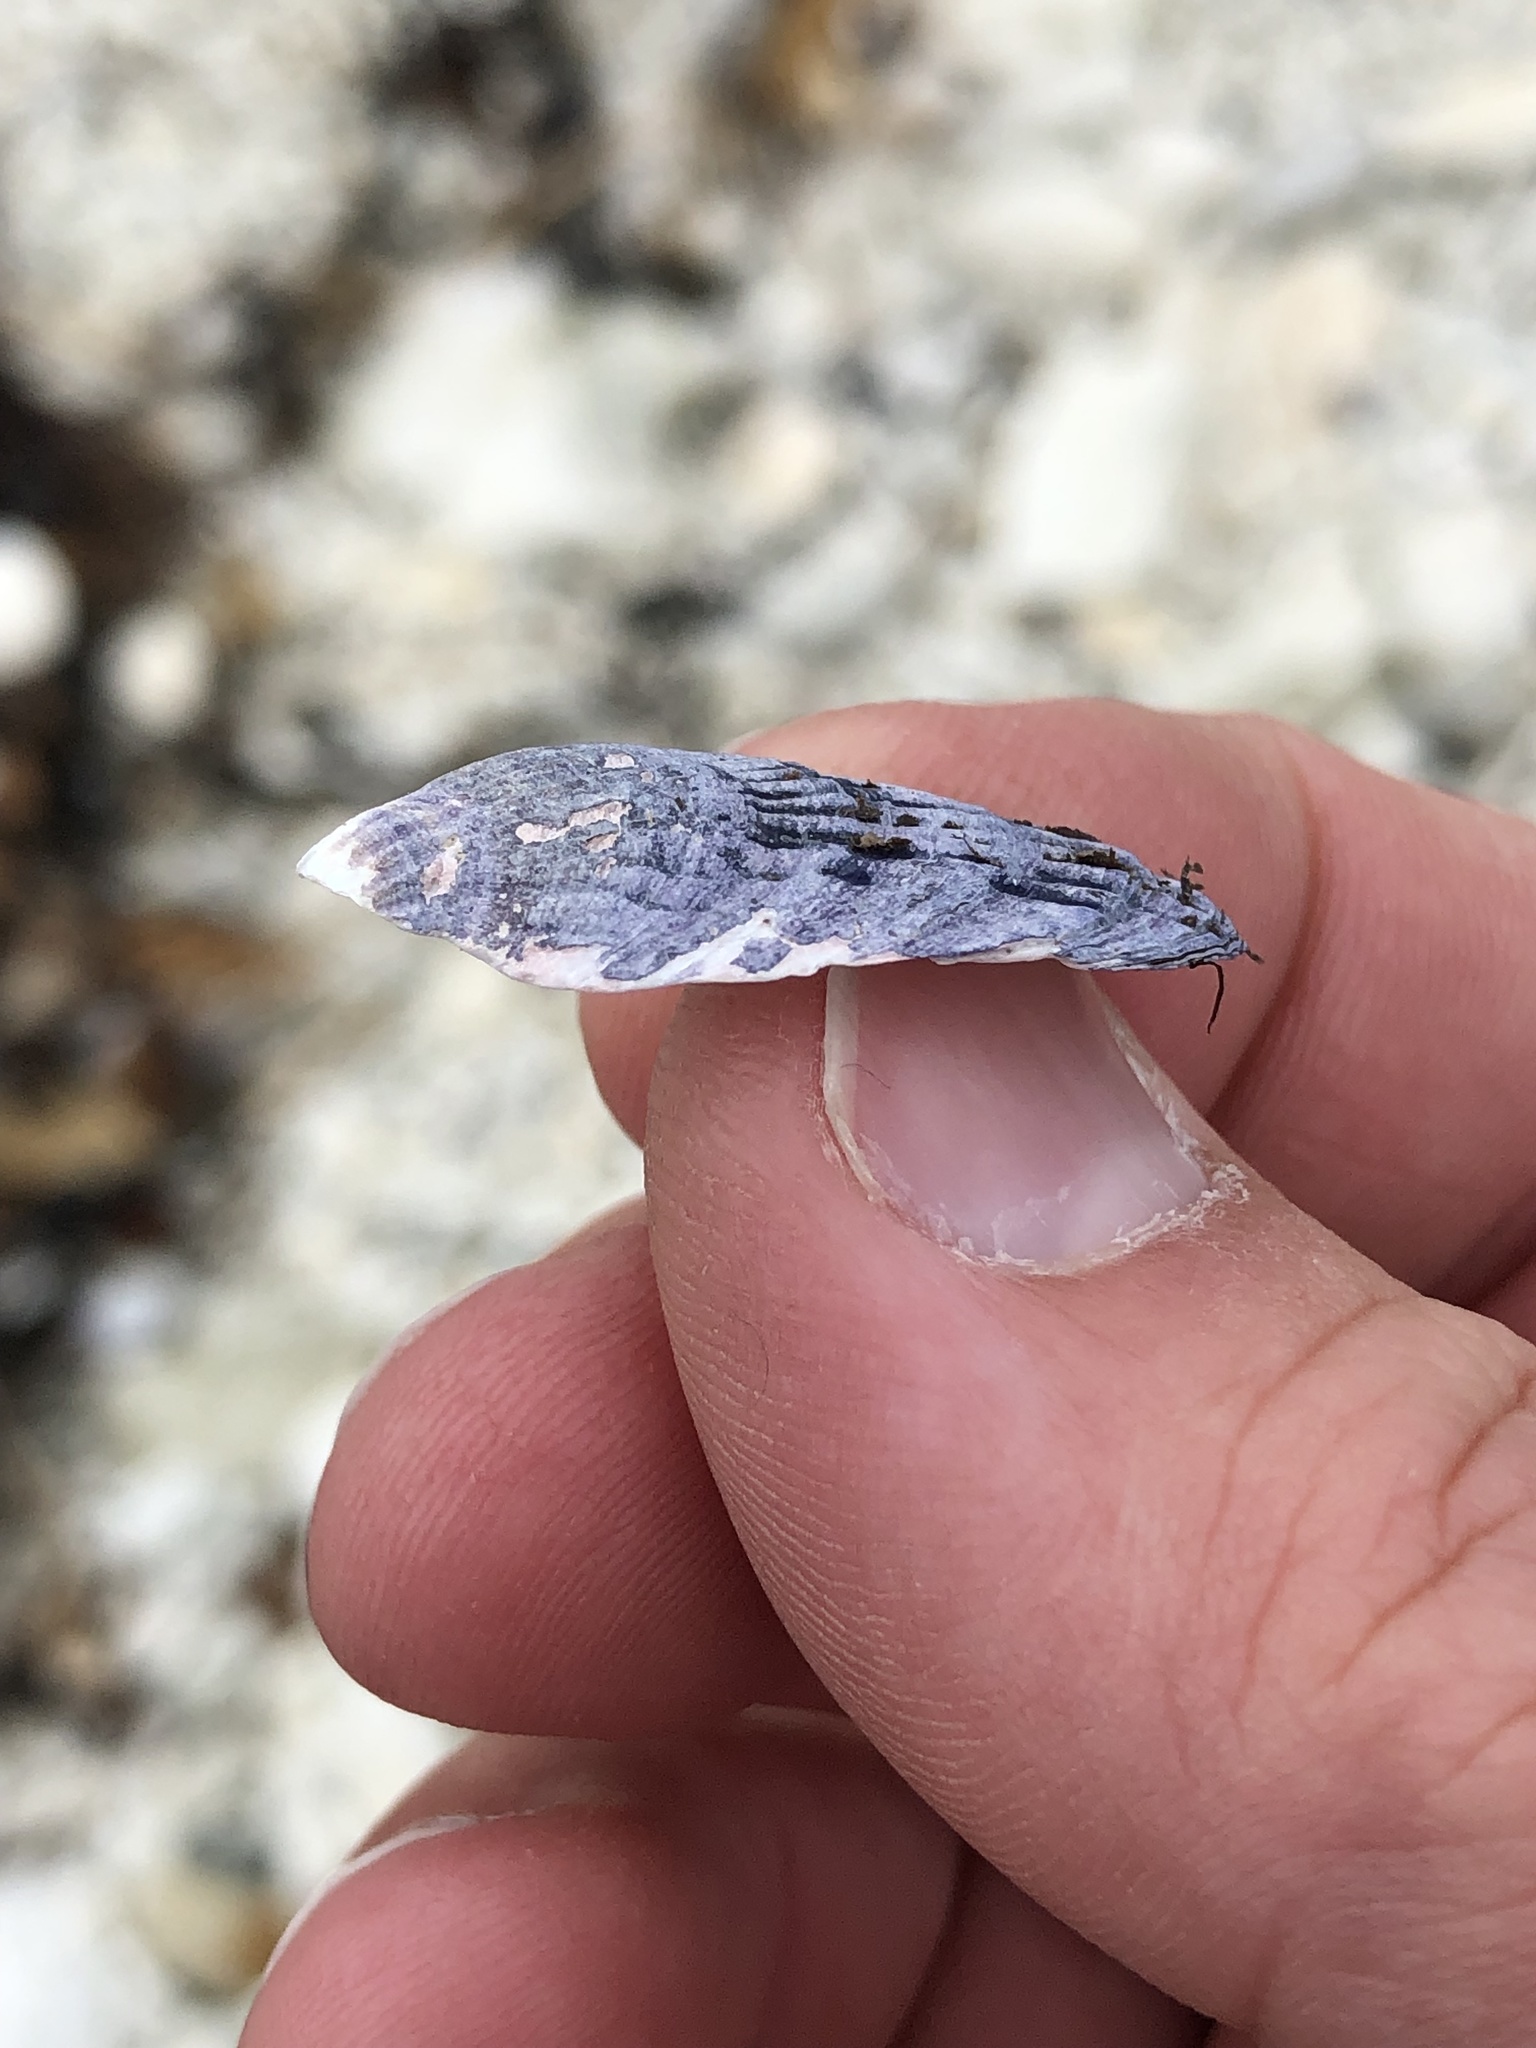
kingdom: Animalia
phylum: Mollusca
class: Bivalvia
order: Mytilida
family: Mytilidae
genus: Aulacomya
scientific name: Aulacomya maoriana
